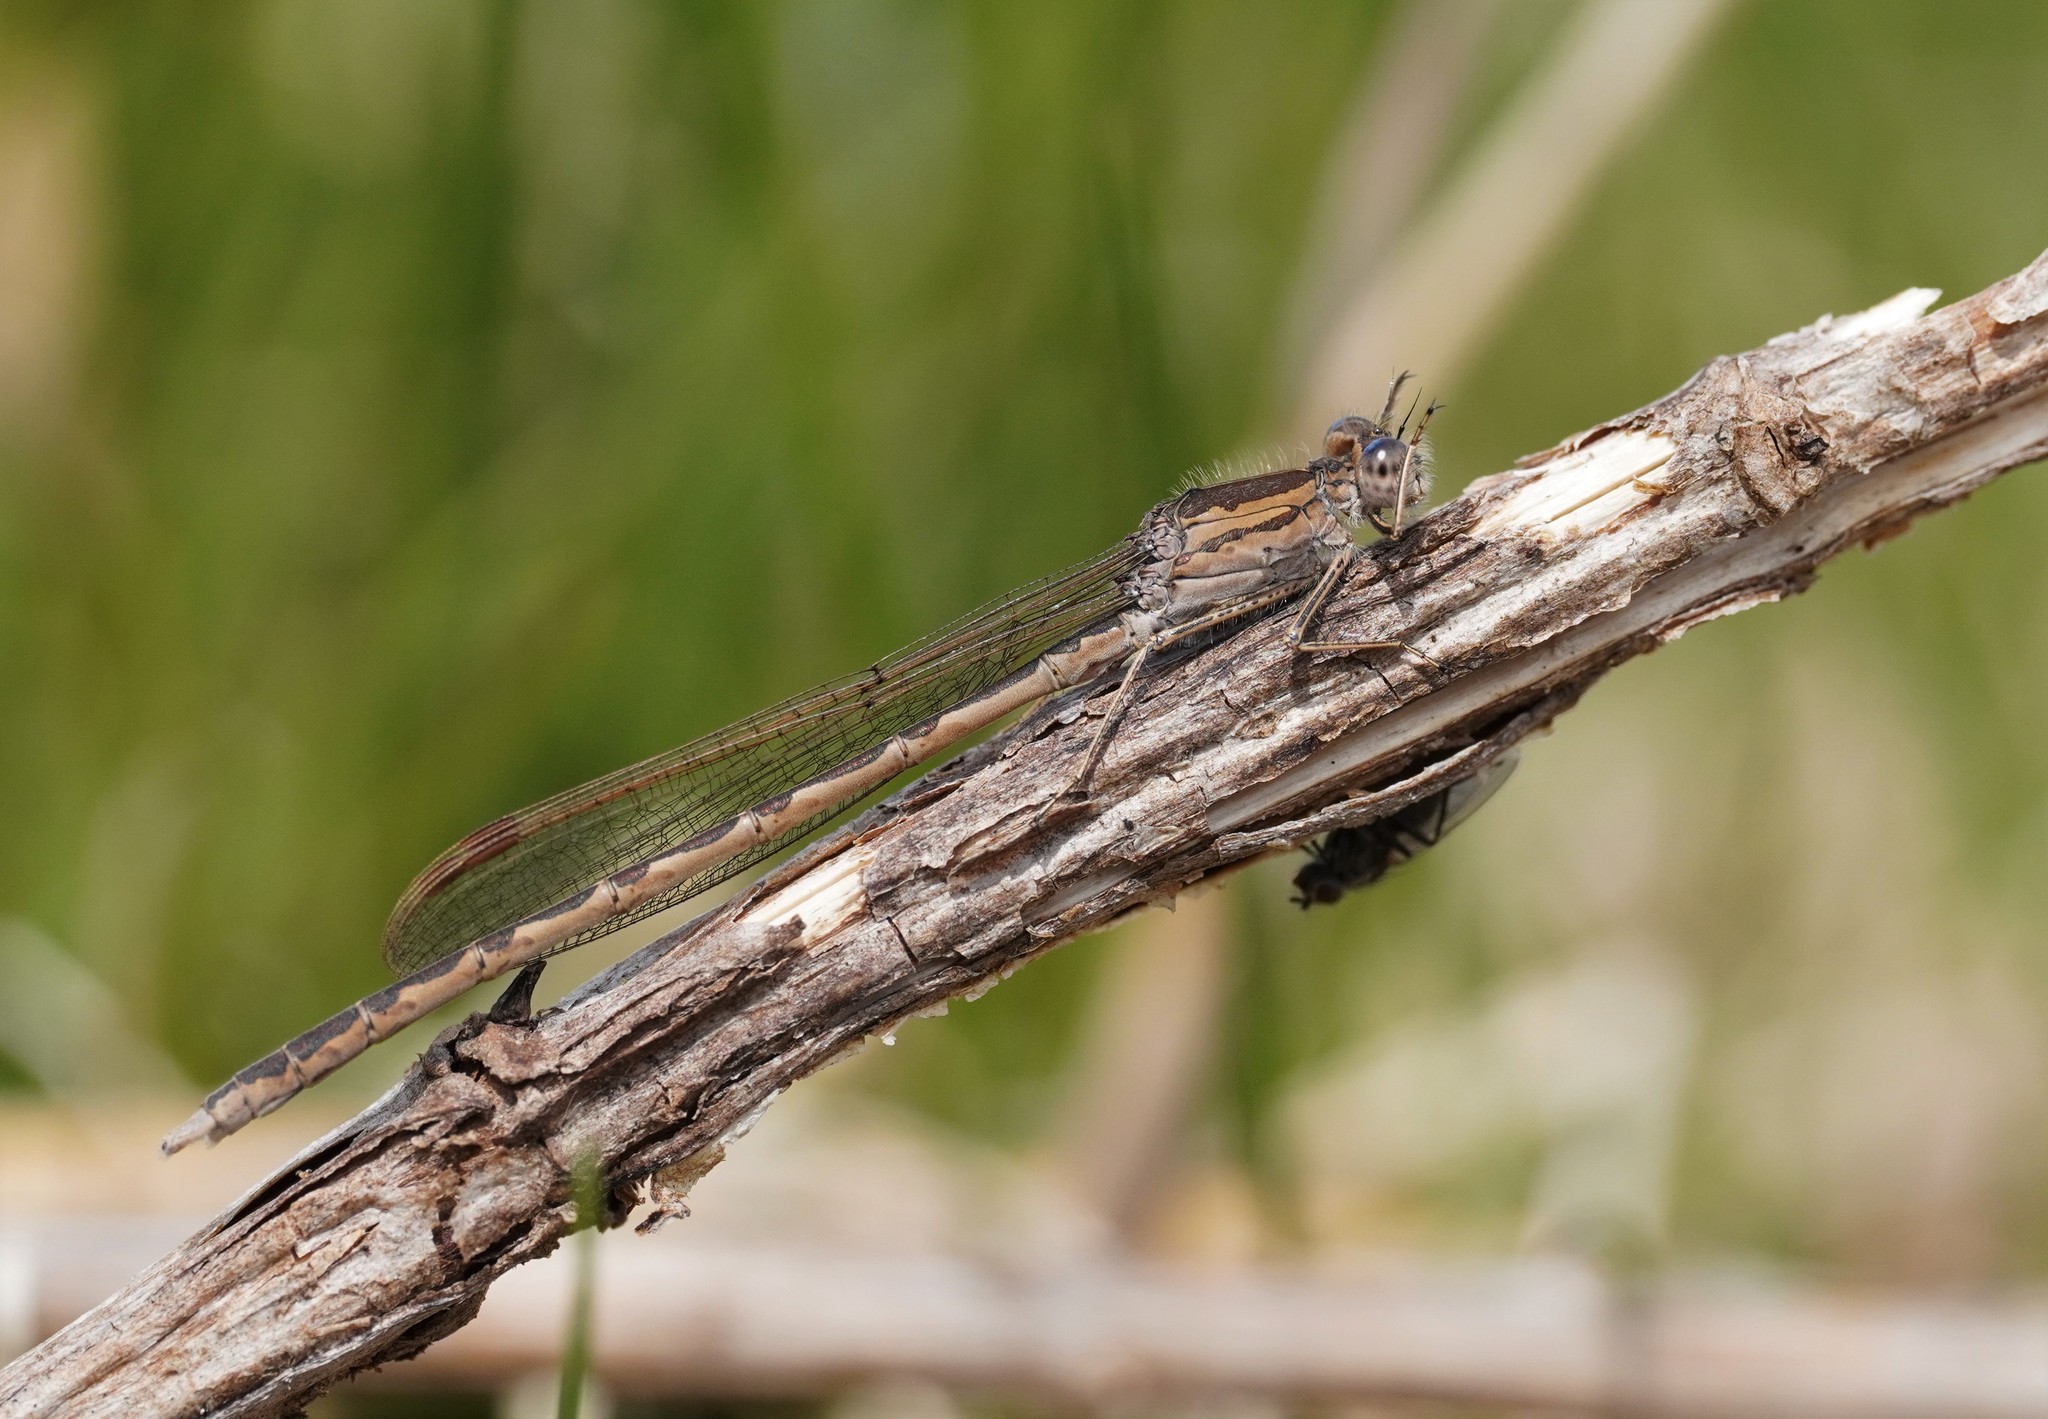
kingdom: Animalia
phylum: Arthropoda
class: Insecta
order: Odonata
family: Lestidae
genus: Sympecma
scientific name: Sympecma paedisca
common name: Siberian winter damsel
